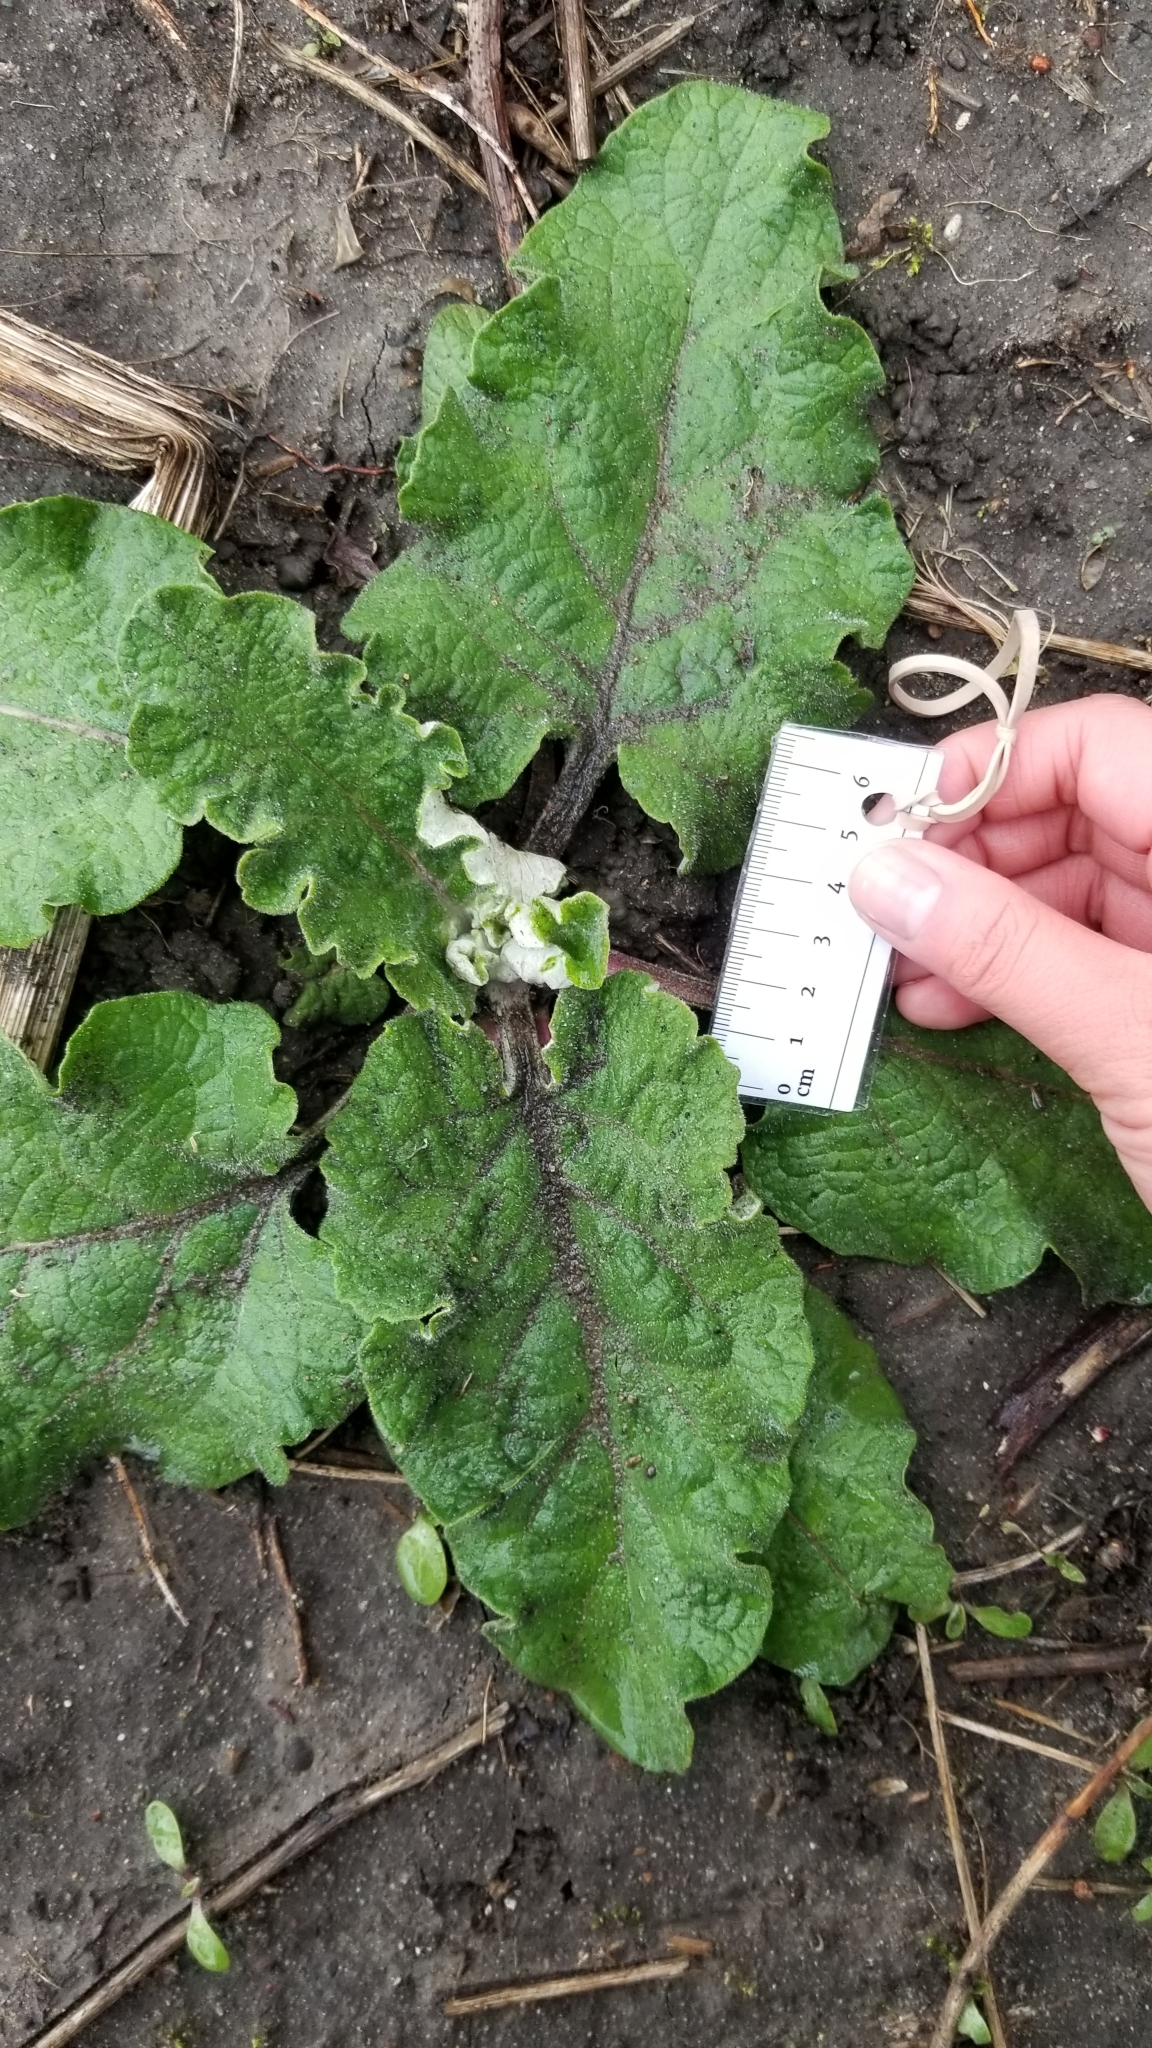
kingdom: Plantae
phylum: Tracheophyta
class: Magnoliopsida
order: Asterales
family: Asteraceae
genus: Arctium
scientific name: Arctium
